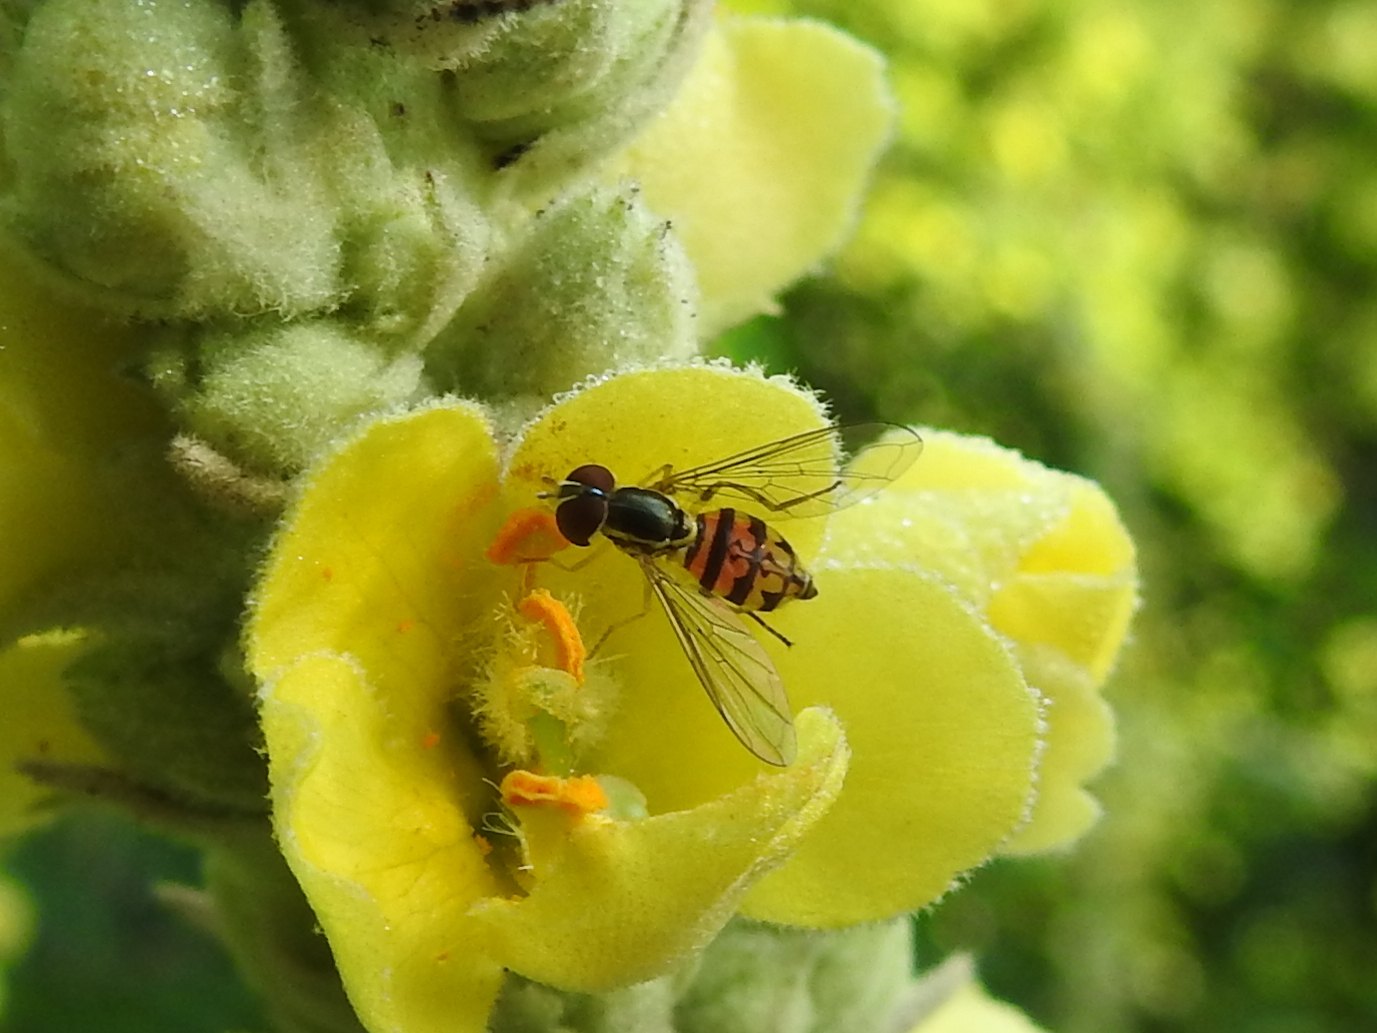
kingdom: Animalia
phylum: Arthropoda
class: Insecta
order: Diptera
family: Syrphidae
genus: Toxomerus
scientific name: Toxomerus geminatus
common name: Eastern calligrapher
